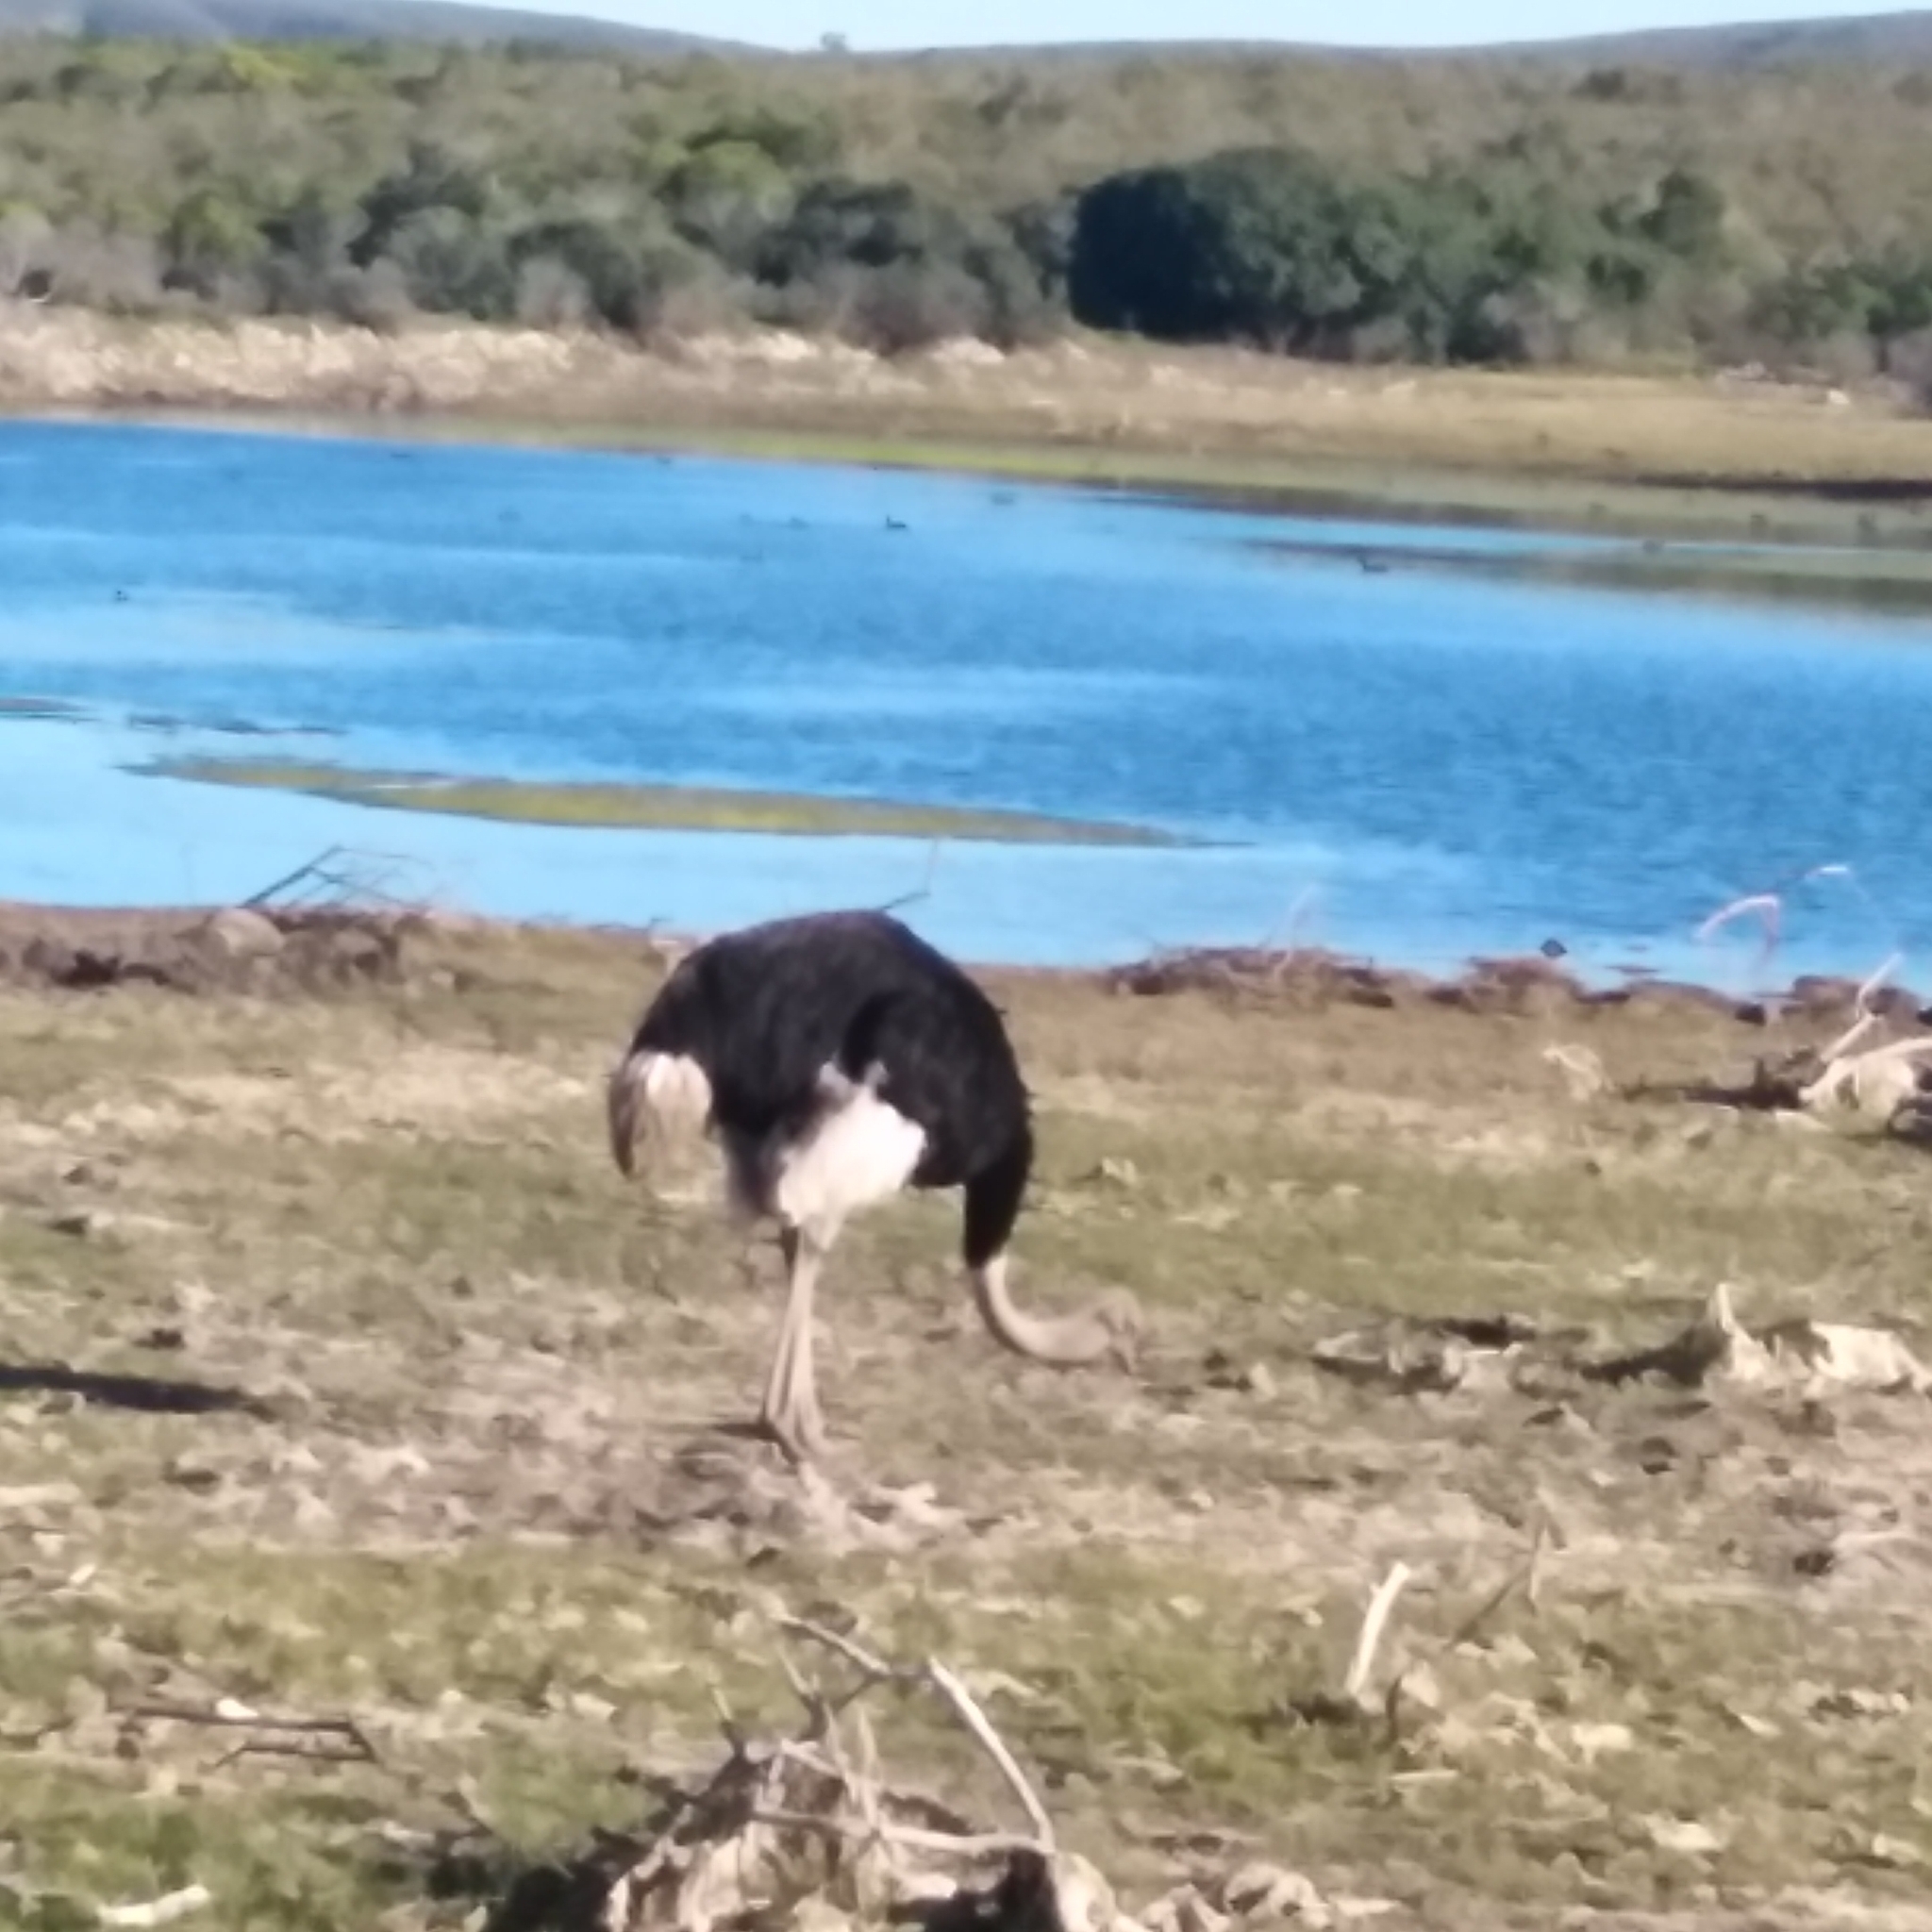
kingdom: Animalia
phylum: Chordata
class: Aves
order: Struthioniformes
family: Struthionidae
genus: Struthio
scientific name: Struthio camelus
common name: Common ostrich
